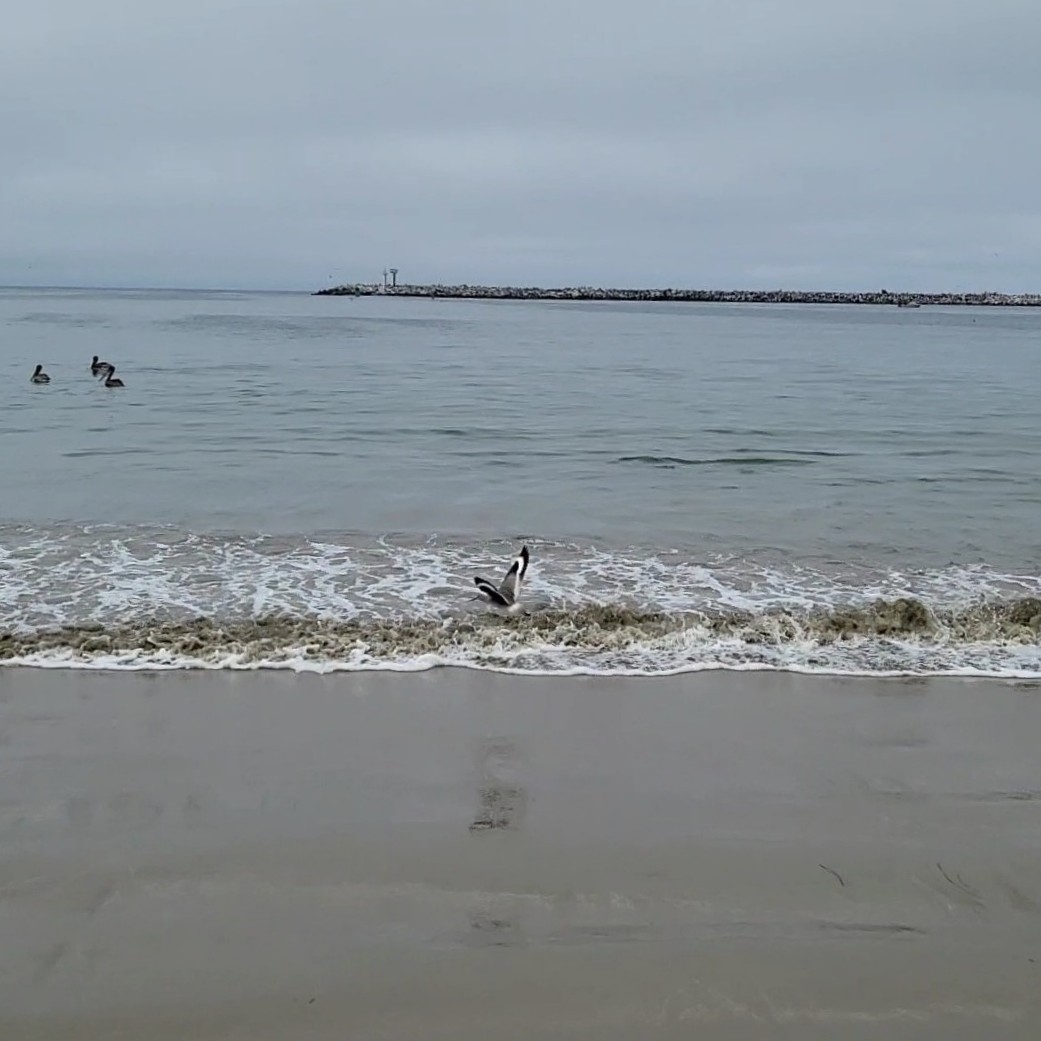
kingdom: Animalia
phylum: Chordata
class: Aves
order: Charadriiformes
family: Scolopacidae
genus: Tringa
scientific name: Tringa semipalmata
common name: Willet
